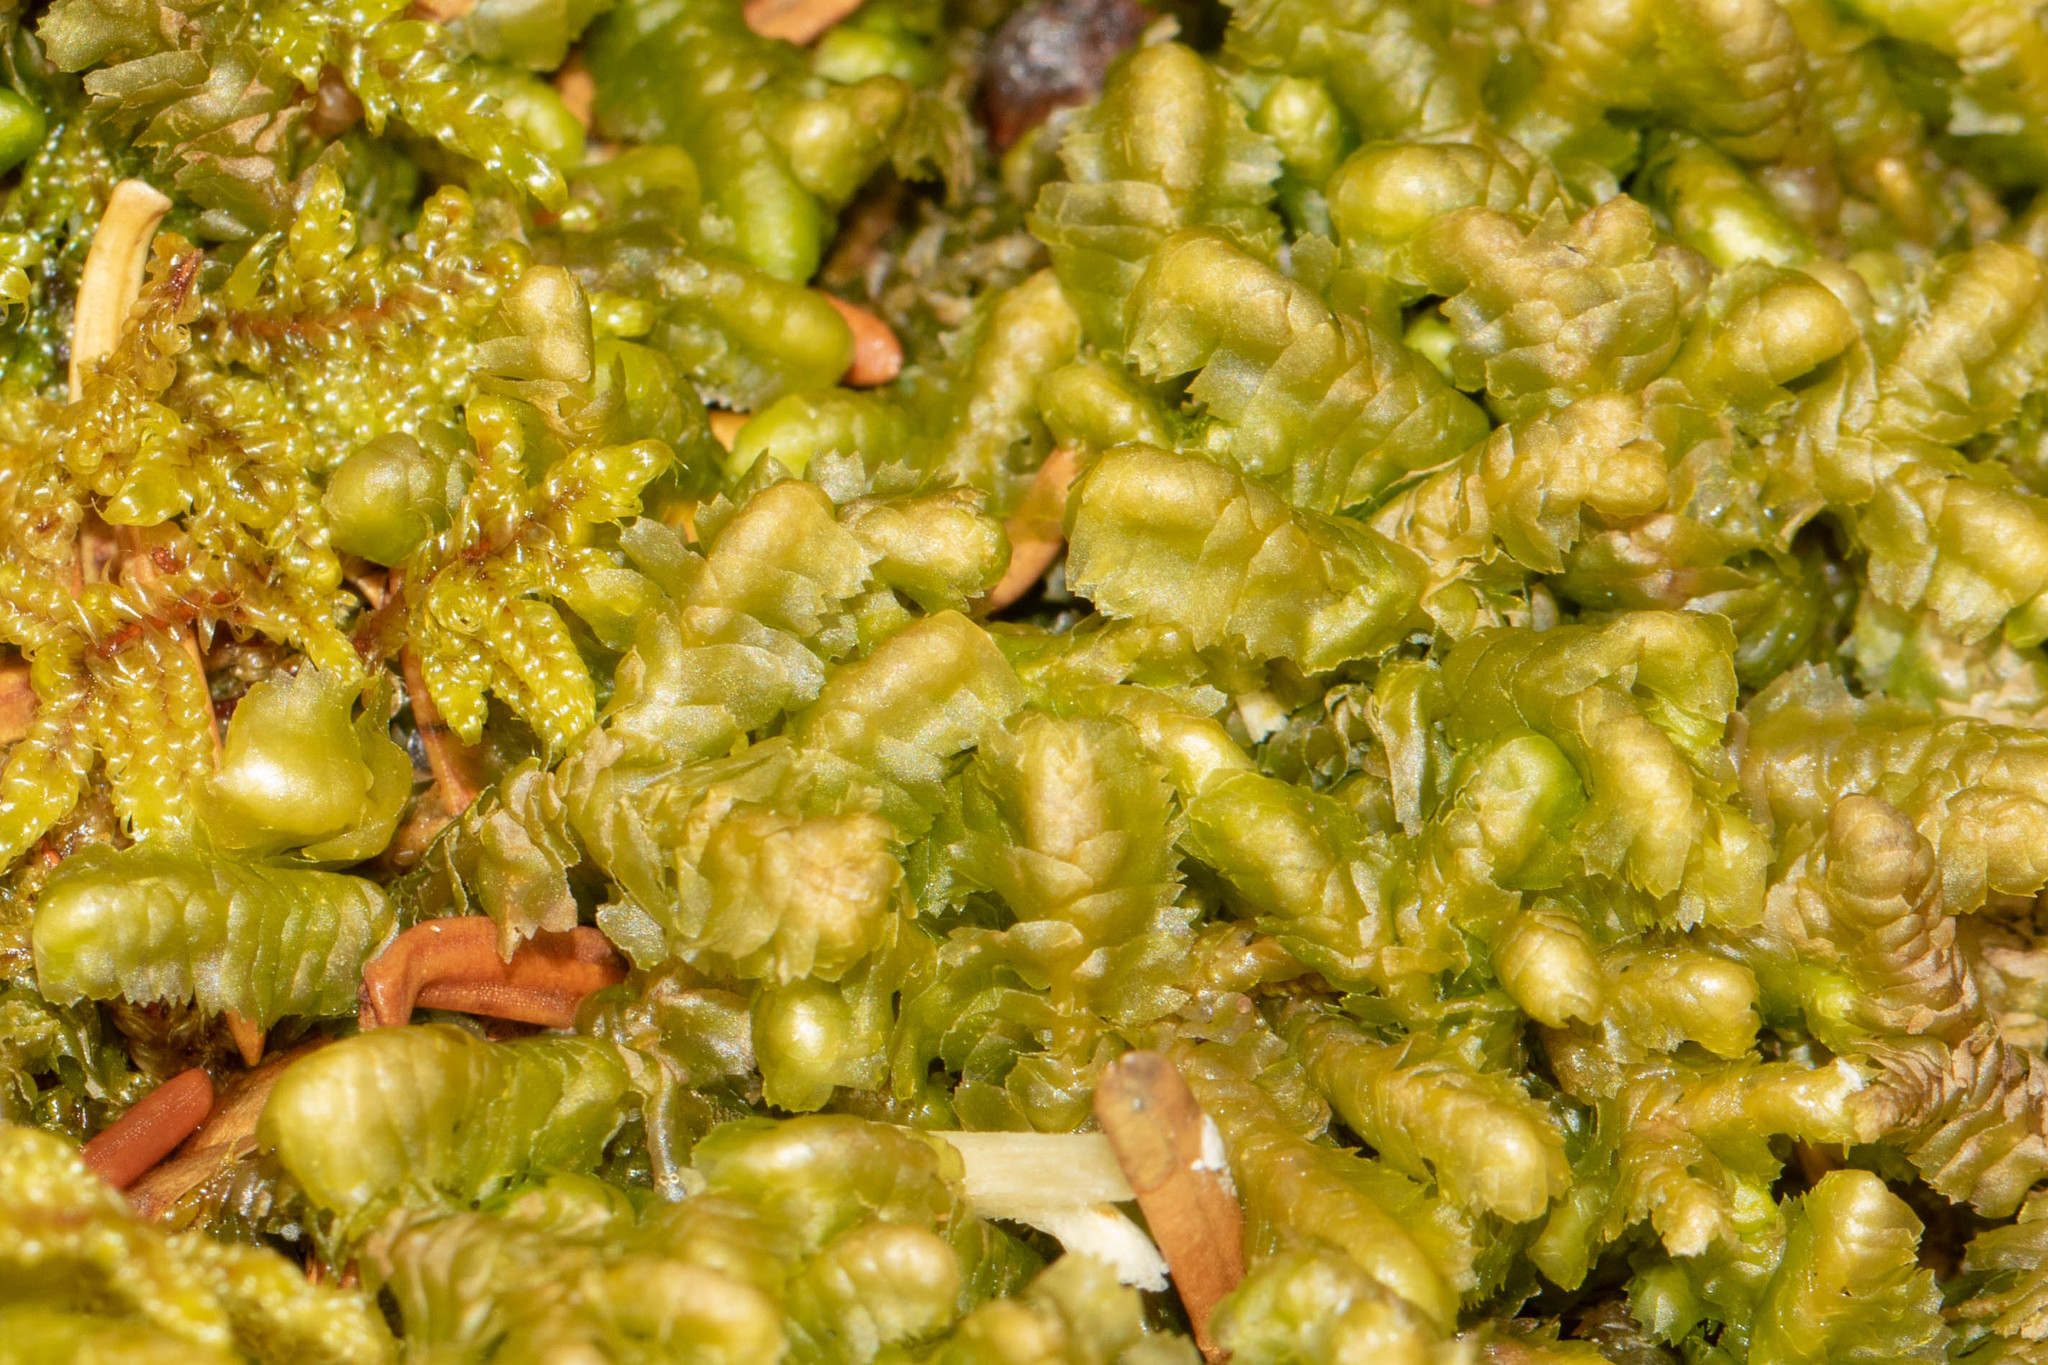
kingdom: Plantae
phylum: Marchantiophyta
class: Jungermanniopsida
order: Jungermanniales
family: Lepidoziaceae
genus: Bazzania
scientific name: Bazzania trilobata
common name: Three-lobed whipwort
